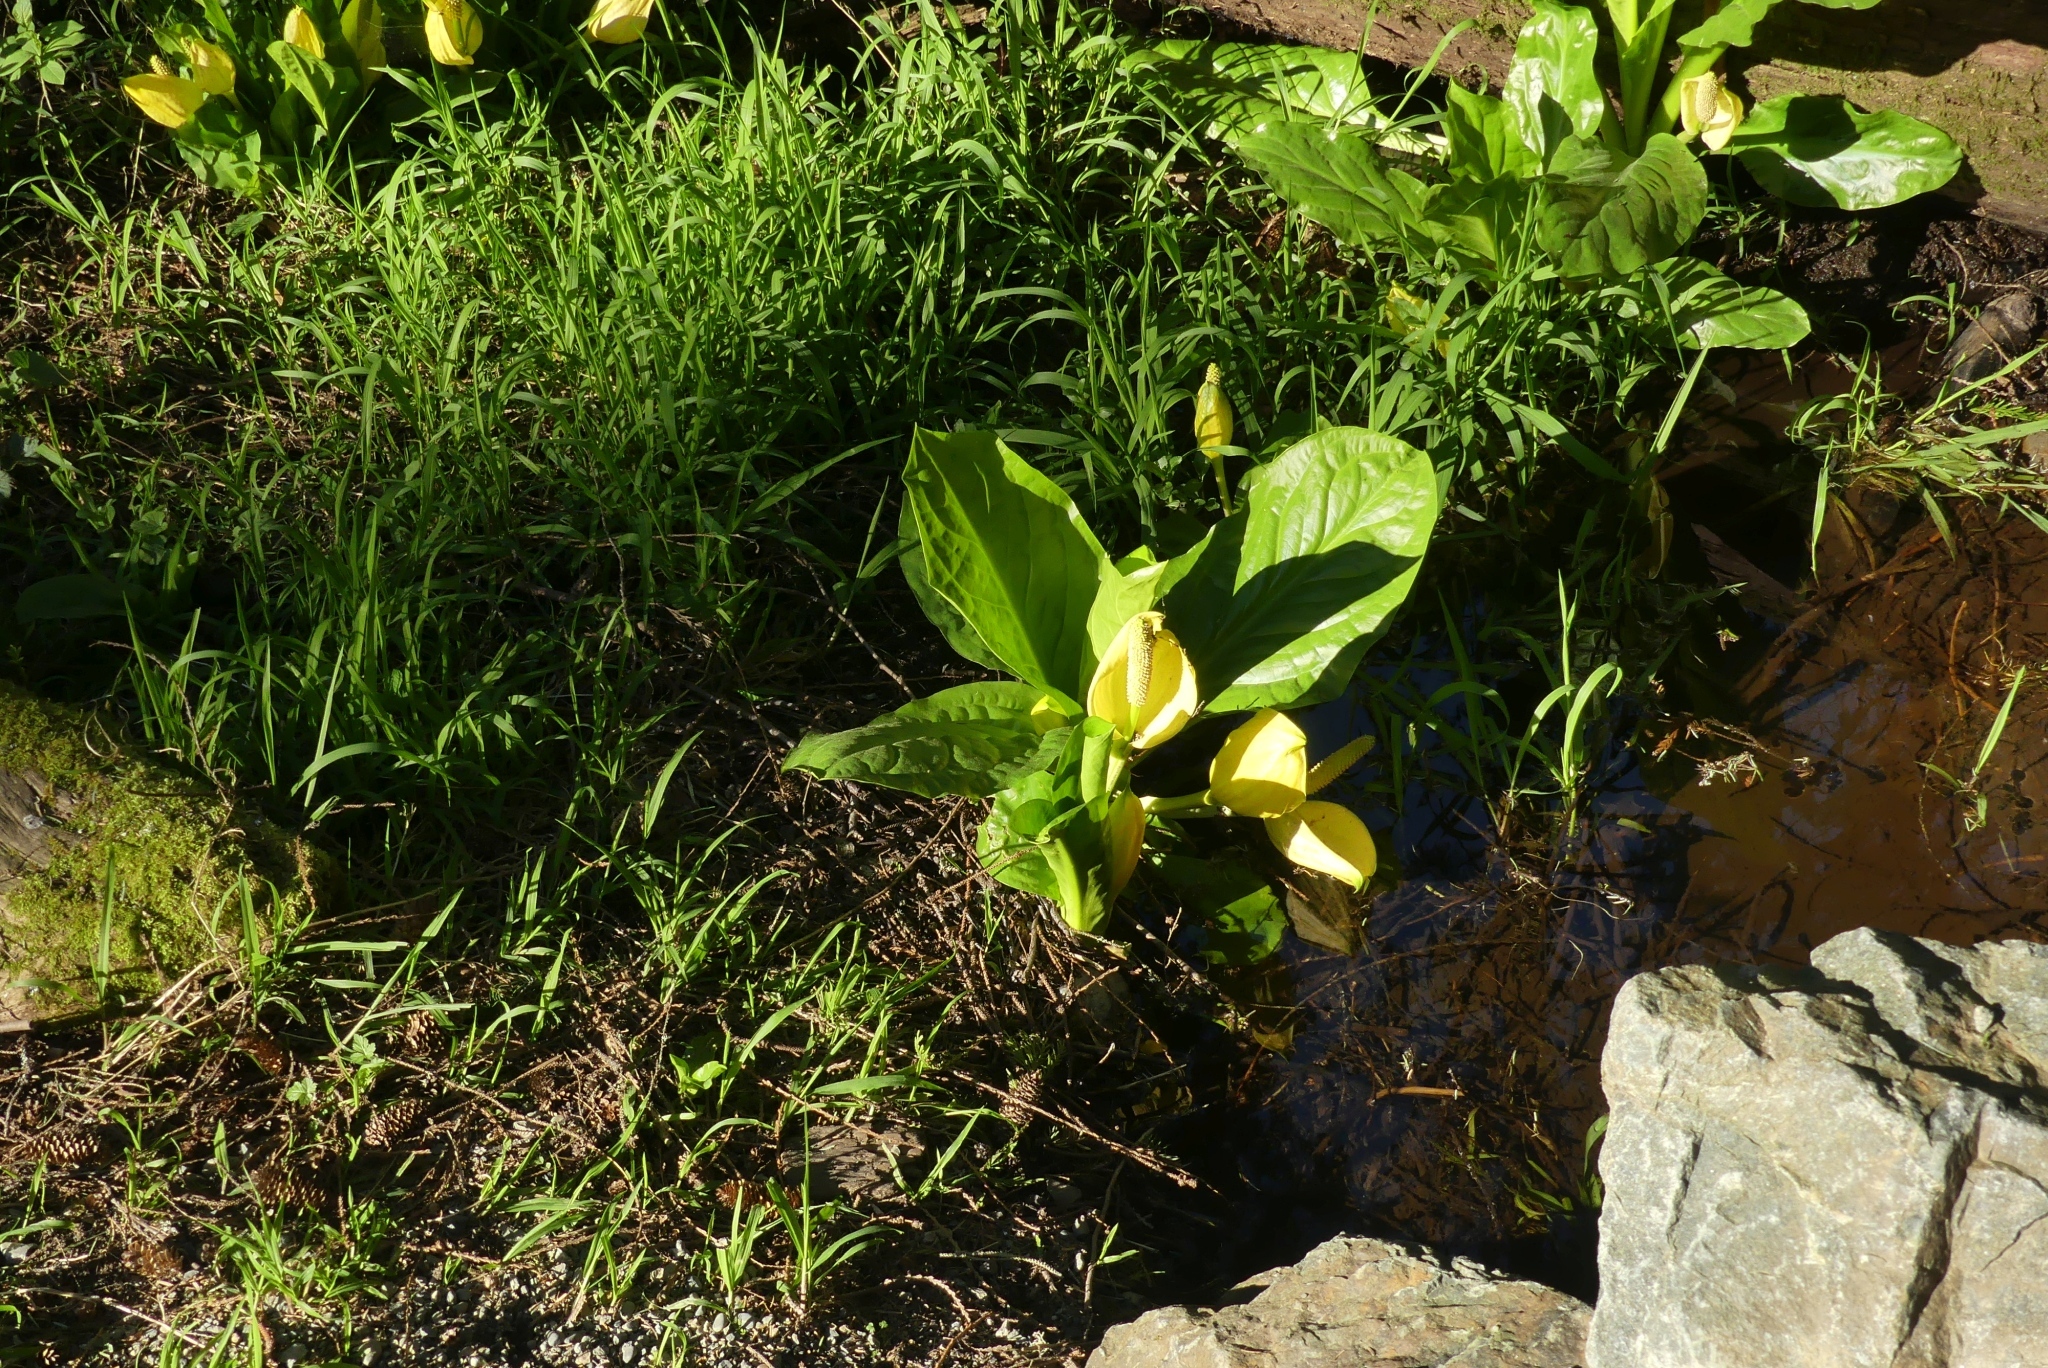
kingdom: Plantae
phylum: Tracheophyta
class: Liliopsida
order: Alismatales
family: Araceae
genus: Lysichiton
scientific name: Lysichiton americanus
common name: American skunk cabbage
